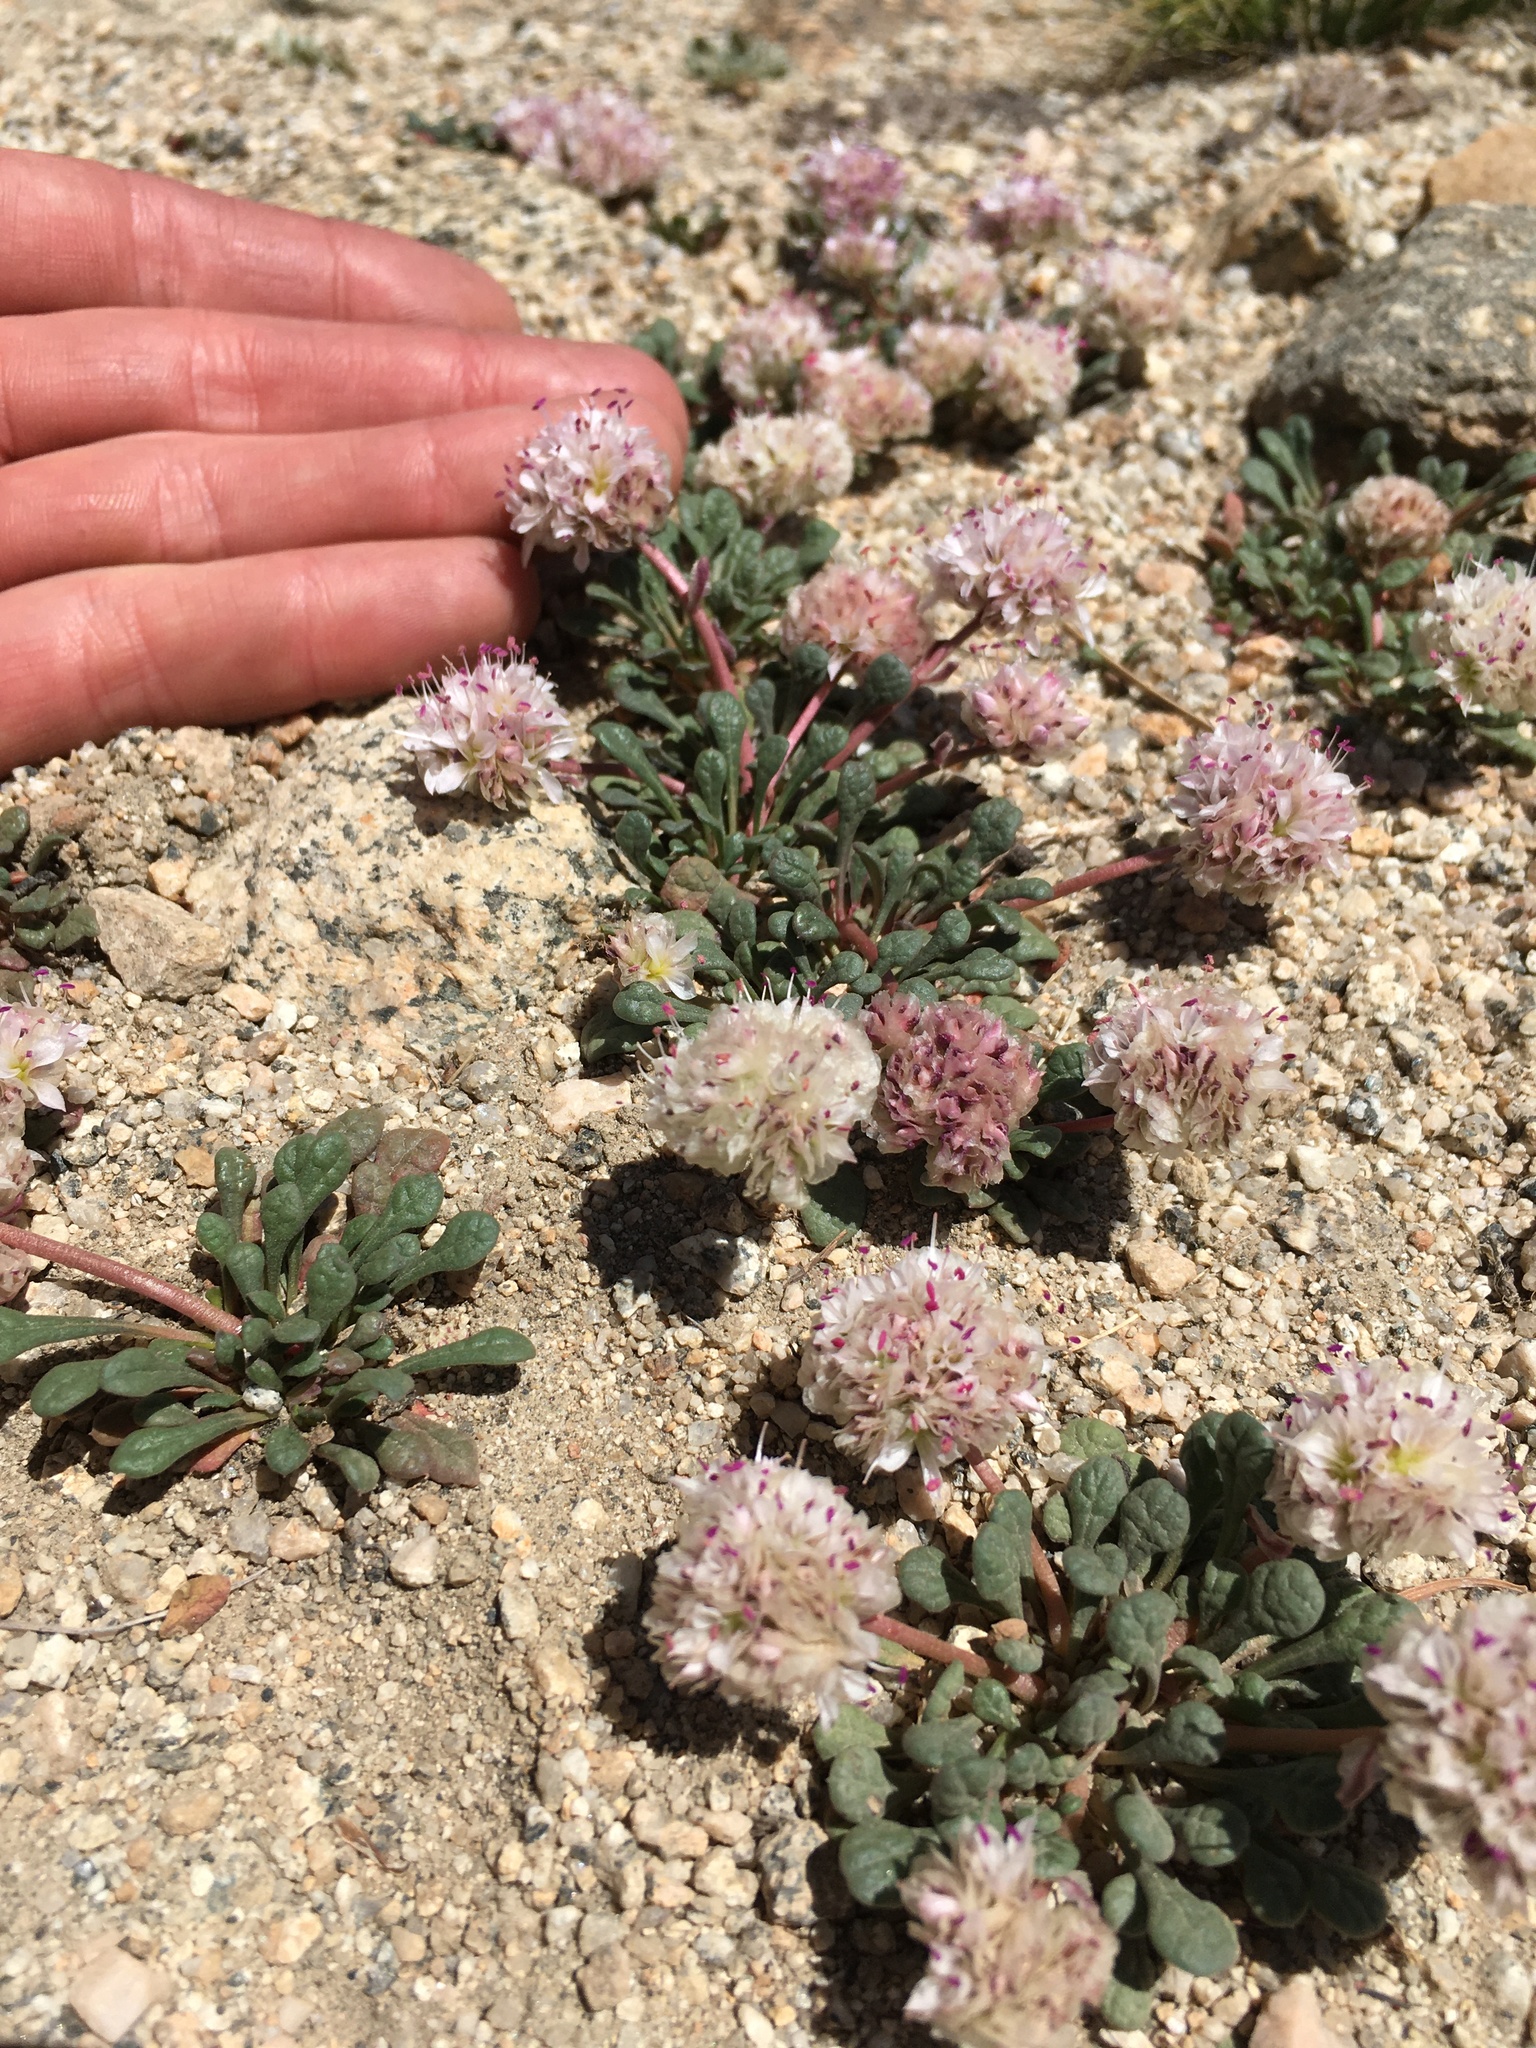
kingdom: Plantae
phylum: Tracheophyta
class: Magnoliopsida
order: Caryophyllales
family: Montiaceae
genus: Calyptridium
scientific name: Calyptridium umbellatum
